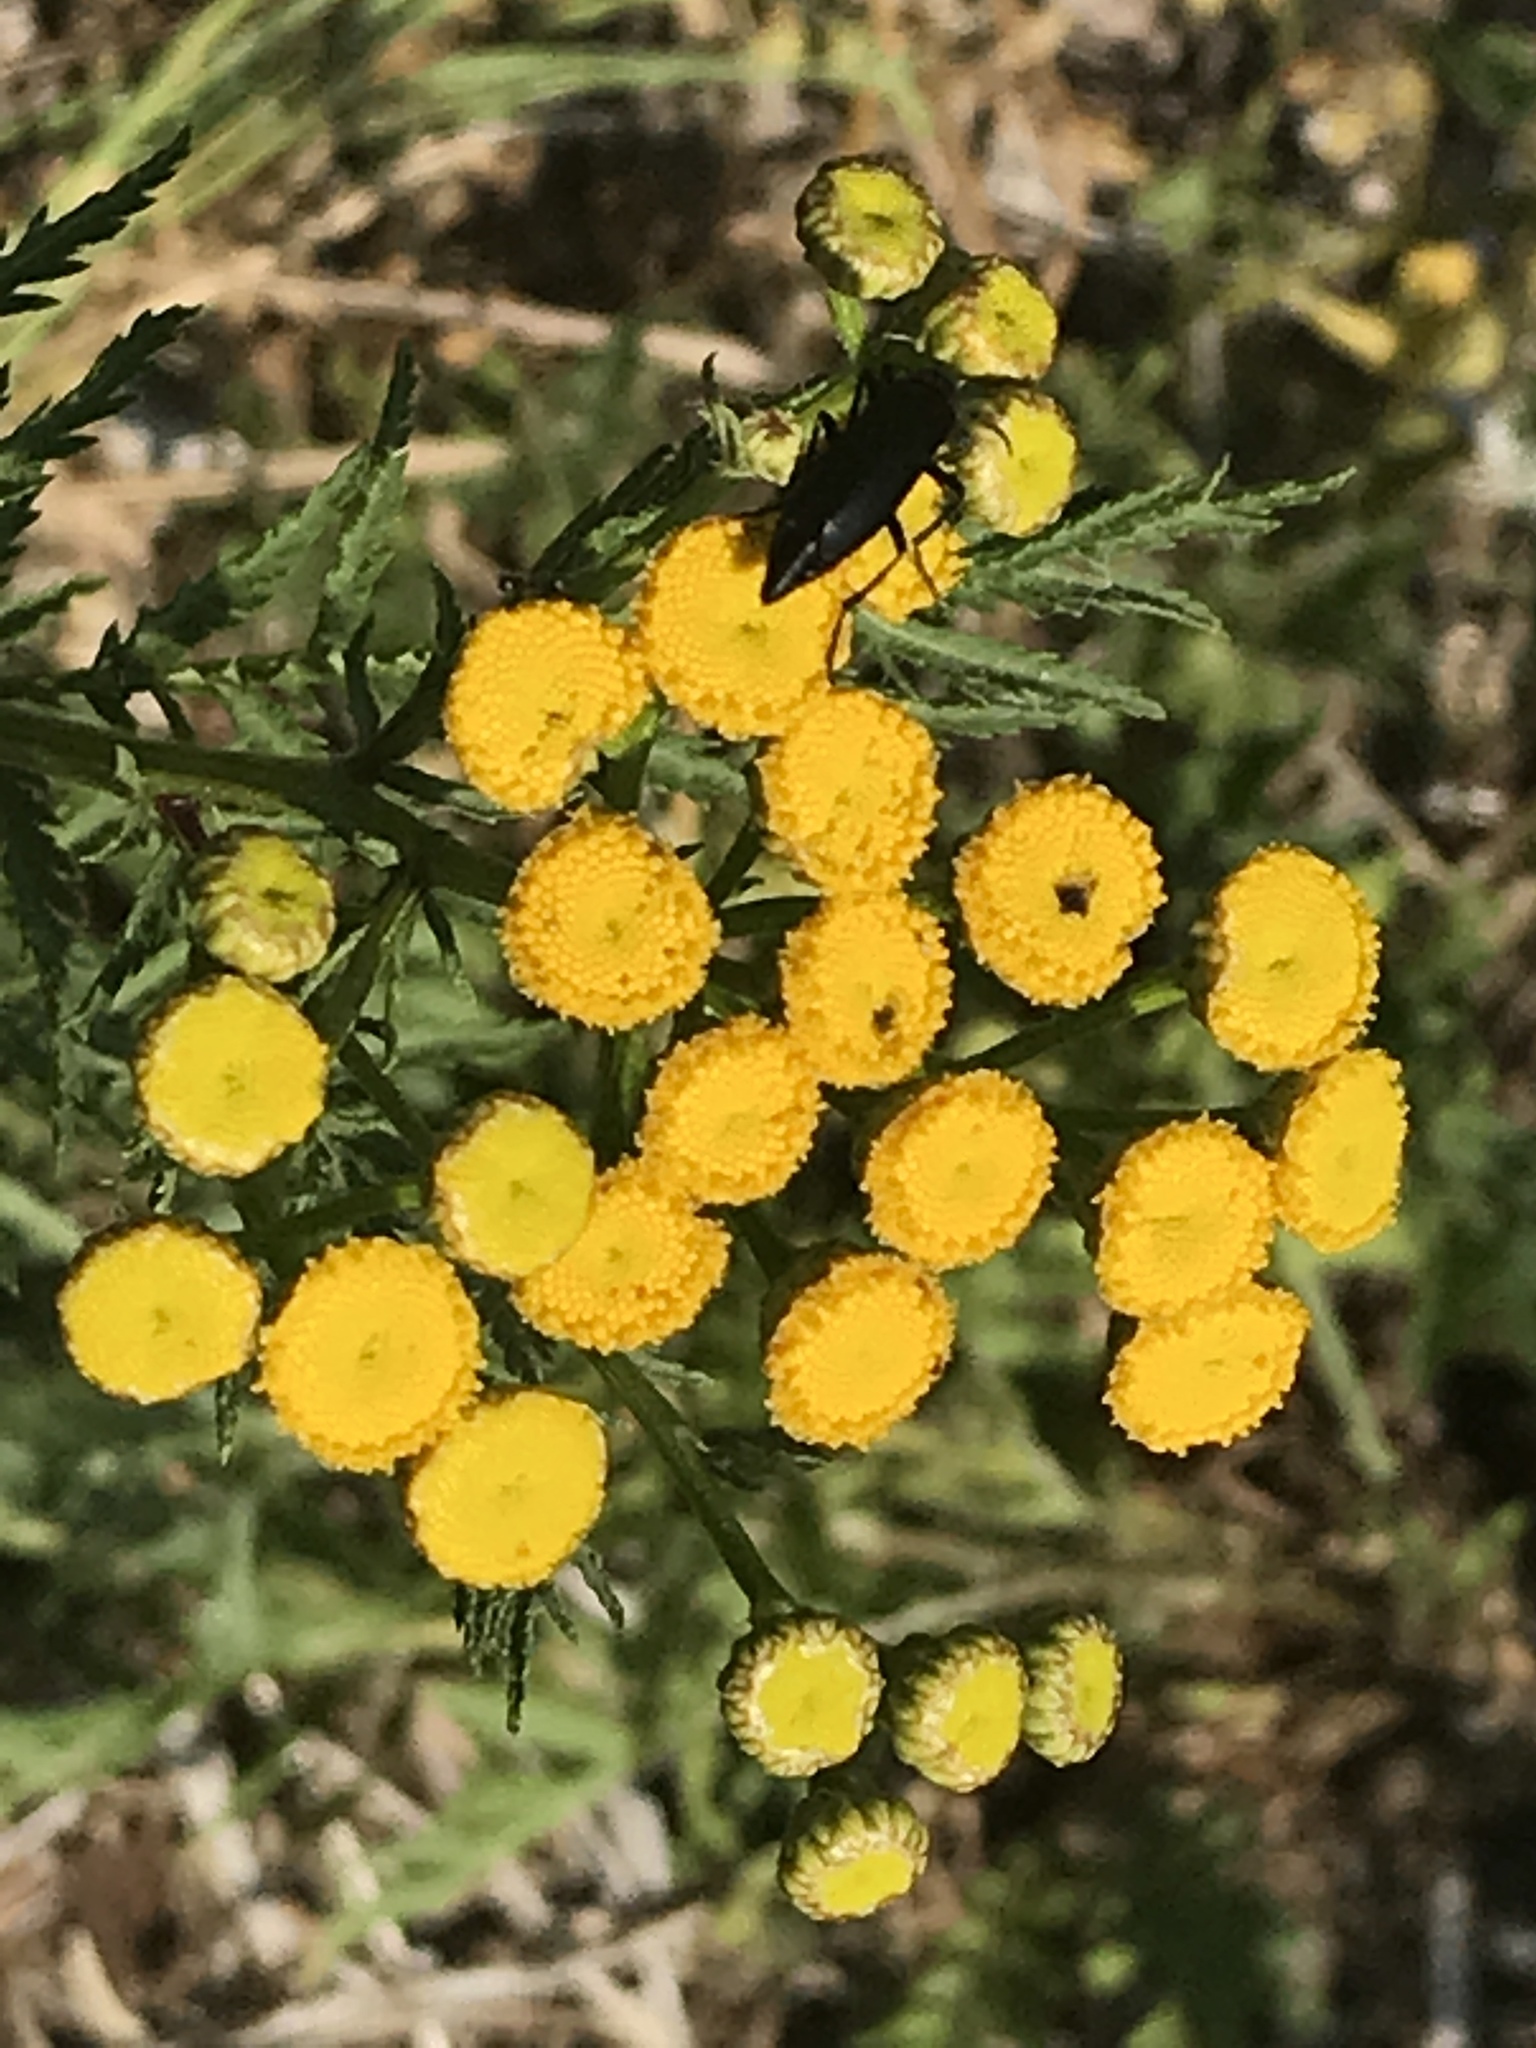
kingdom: Plantae
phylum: Tracheophyta
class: Magnoliopsida
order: Asterales
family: Asteraceae
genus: Tanacetum
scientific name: Tanacetum vulgare
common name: Common tansy
